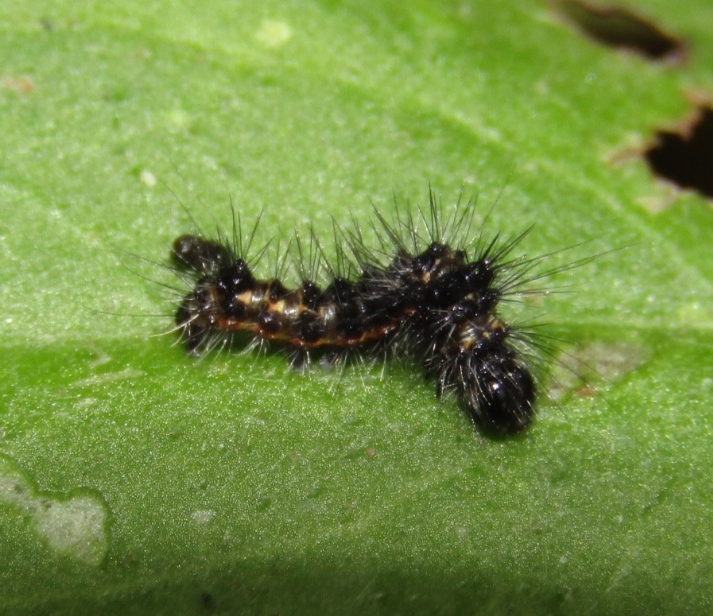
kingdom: Animalia
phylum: Arthropoda
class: Insecta
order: Lepidoptera
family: Noctuidae
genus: Acronicta
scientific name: Acronicta rumicis
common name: Knot grass
